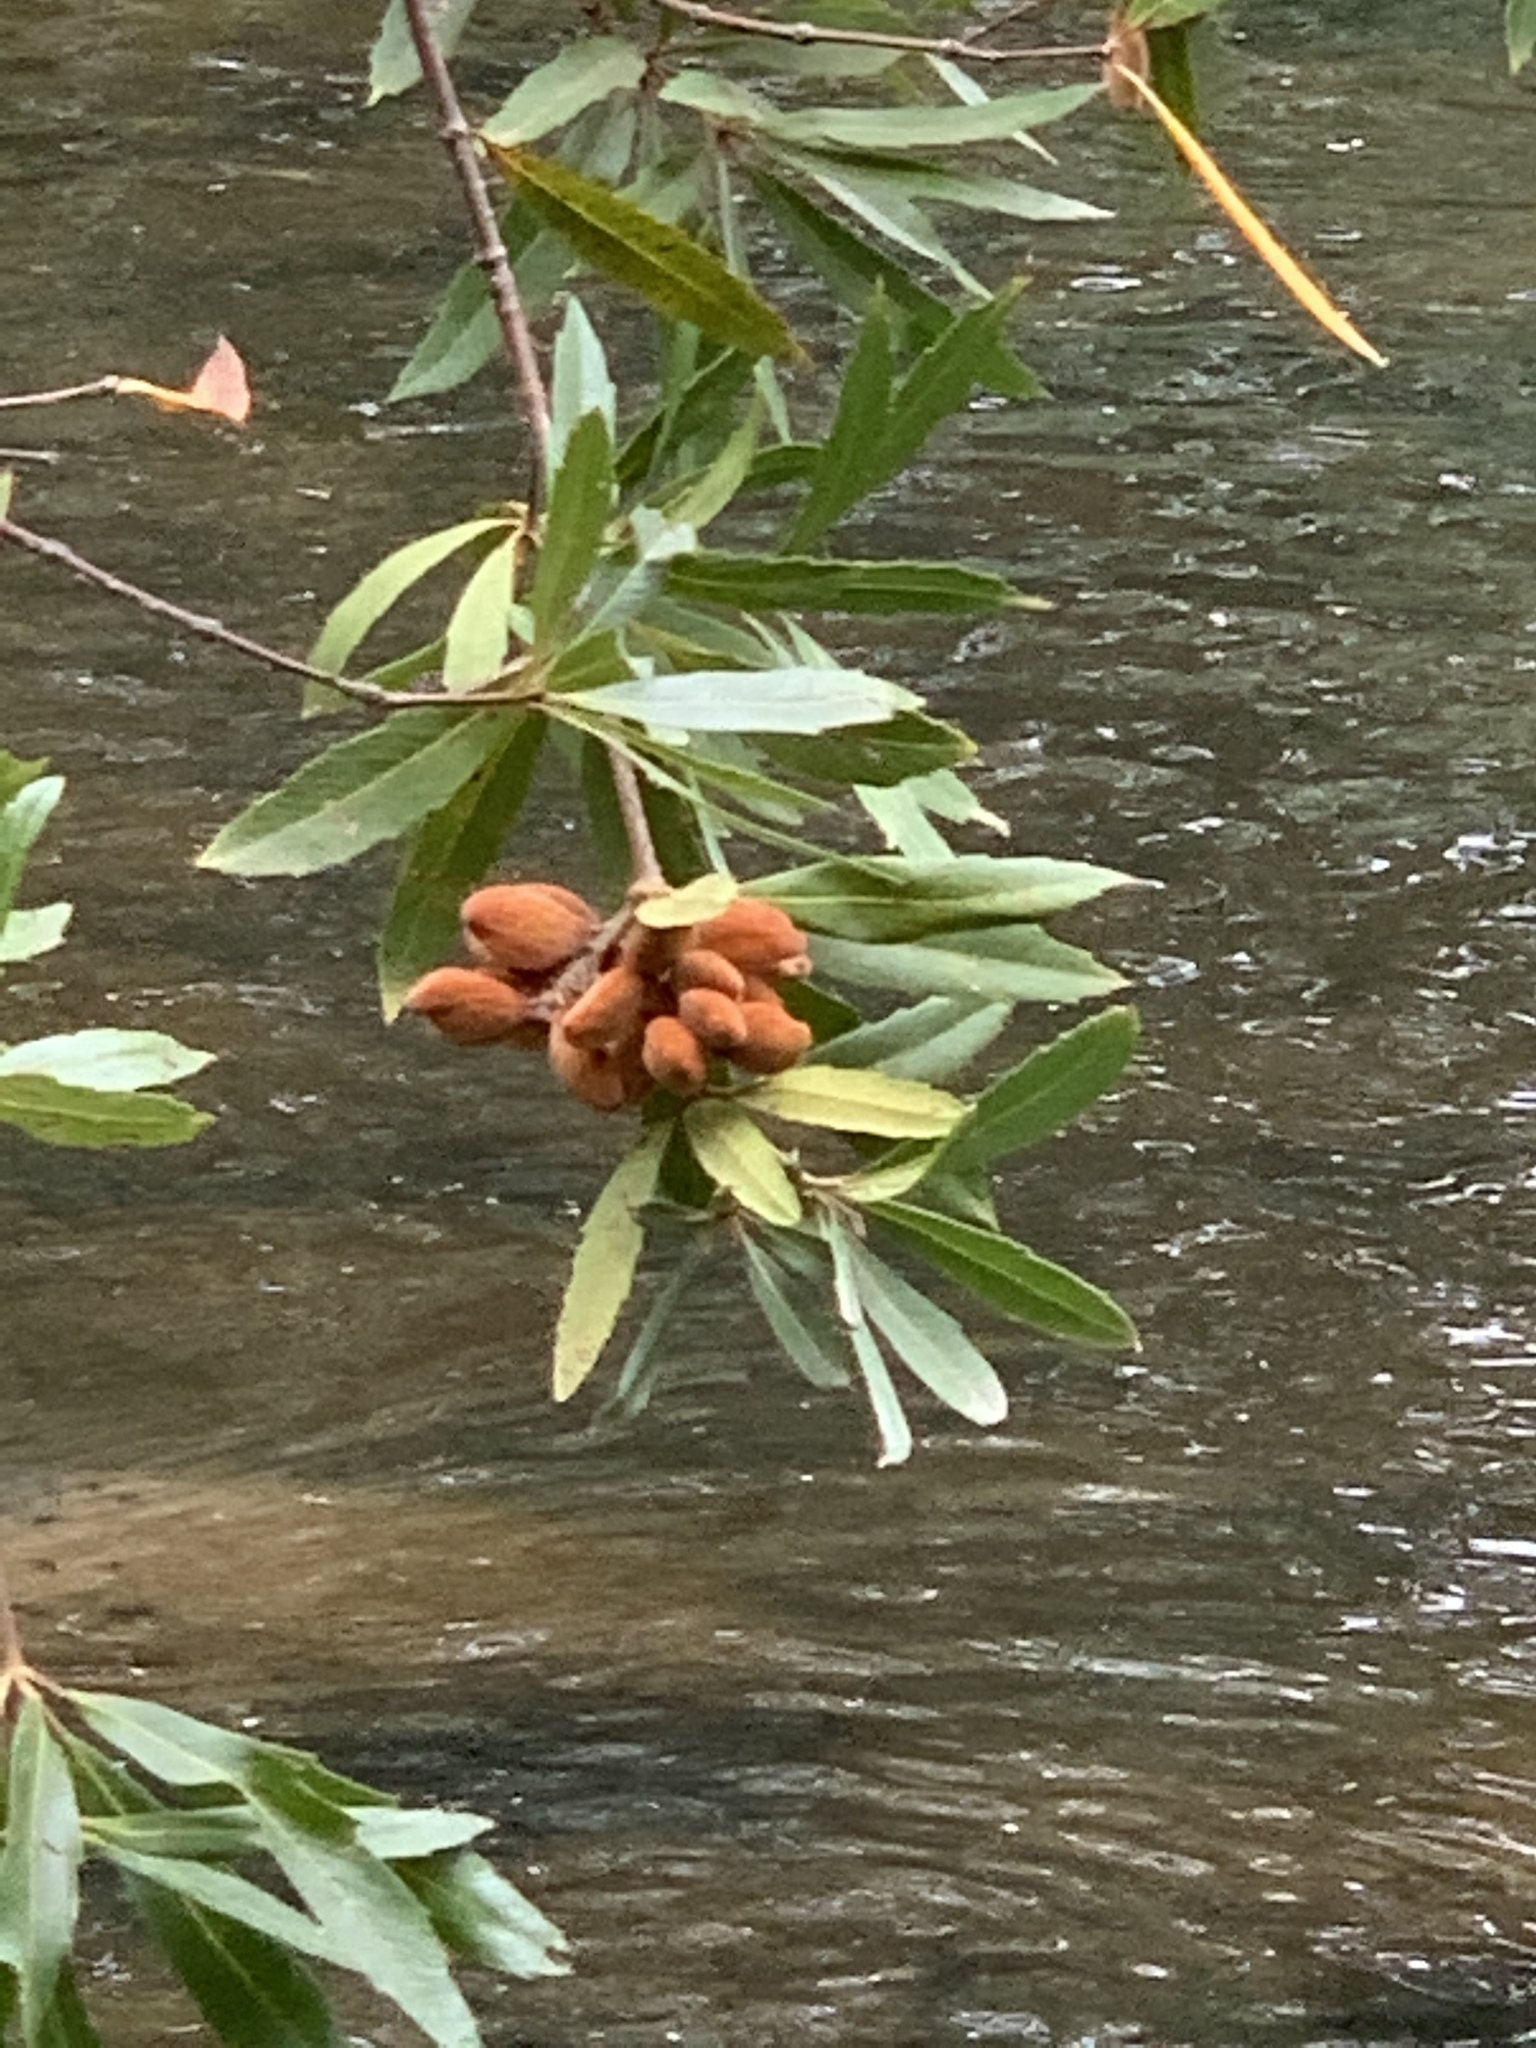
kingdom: Plantae
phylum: Tracheophyta
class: Magnoliopsida
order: Proteales
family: Proteaceae
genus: Brabejum
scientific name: Brabejum stellatifolium
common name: Wild almond
